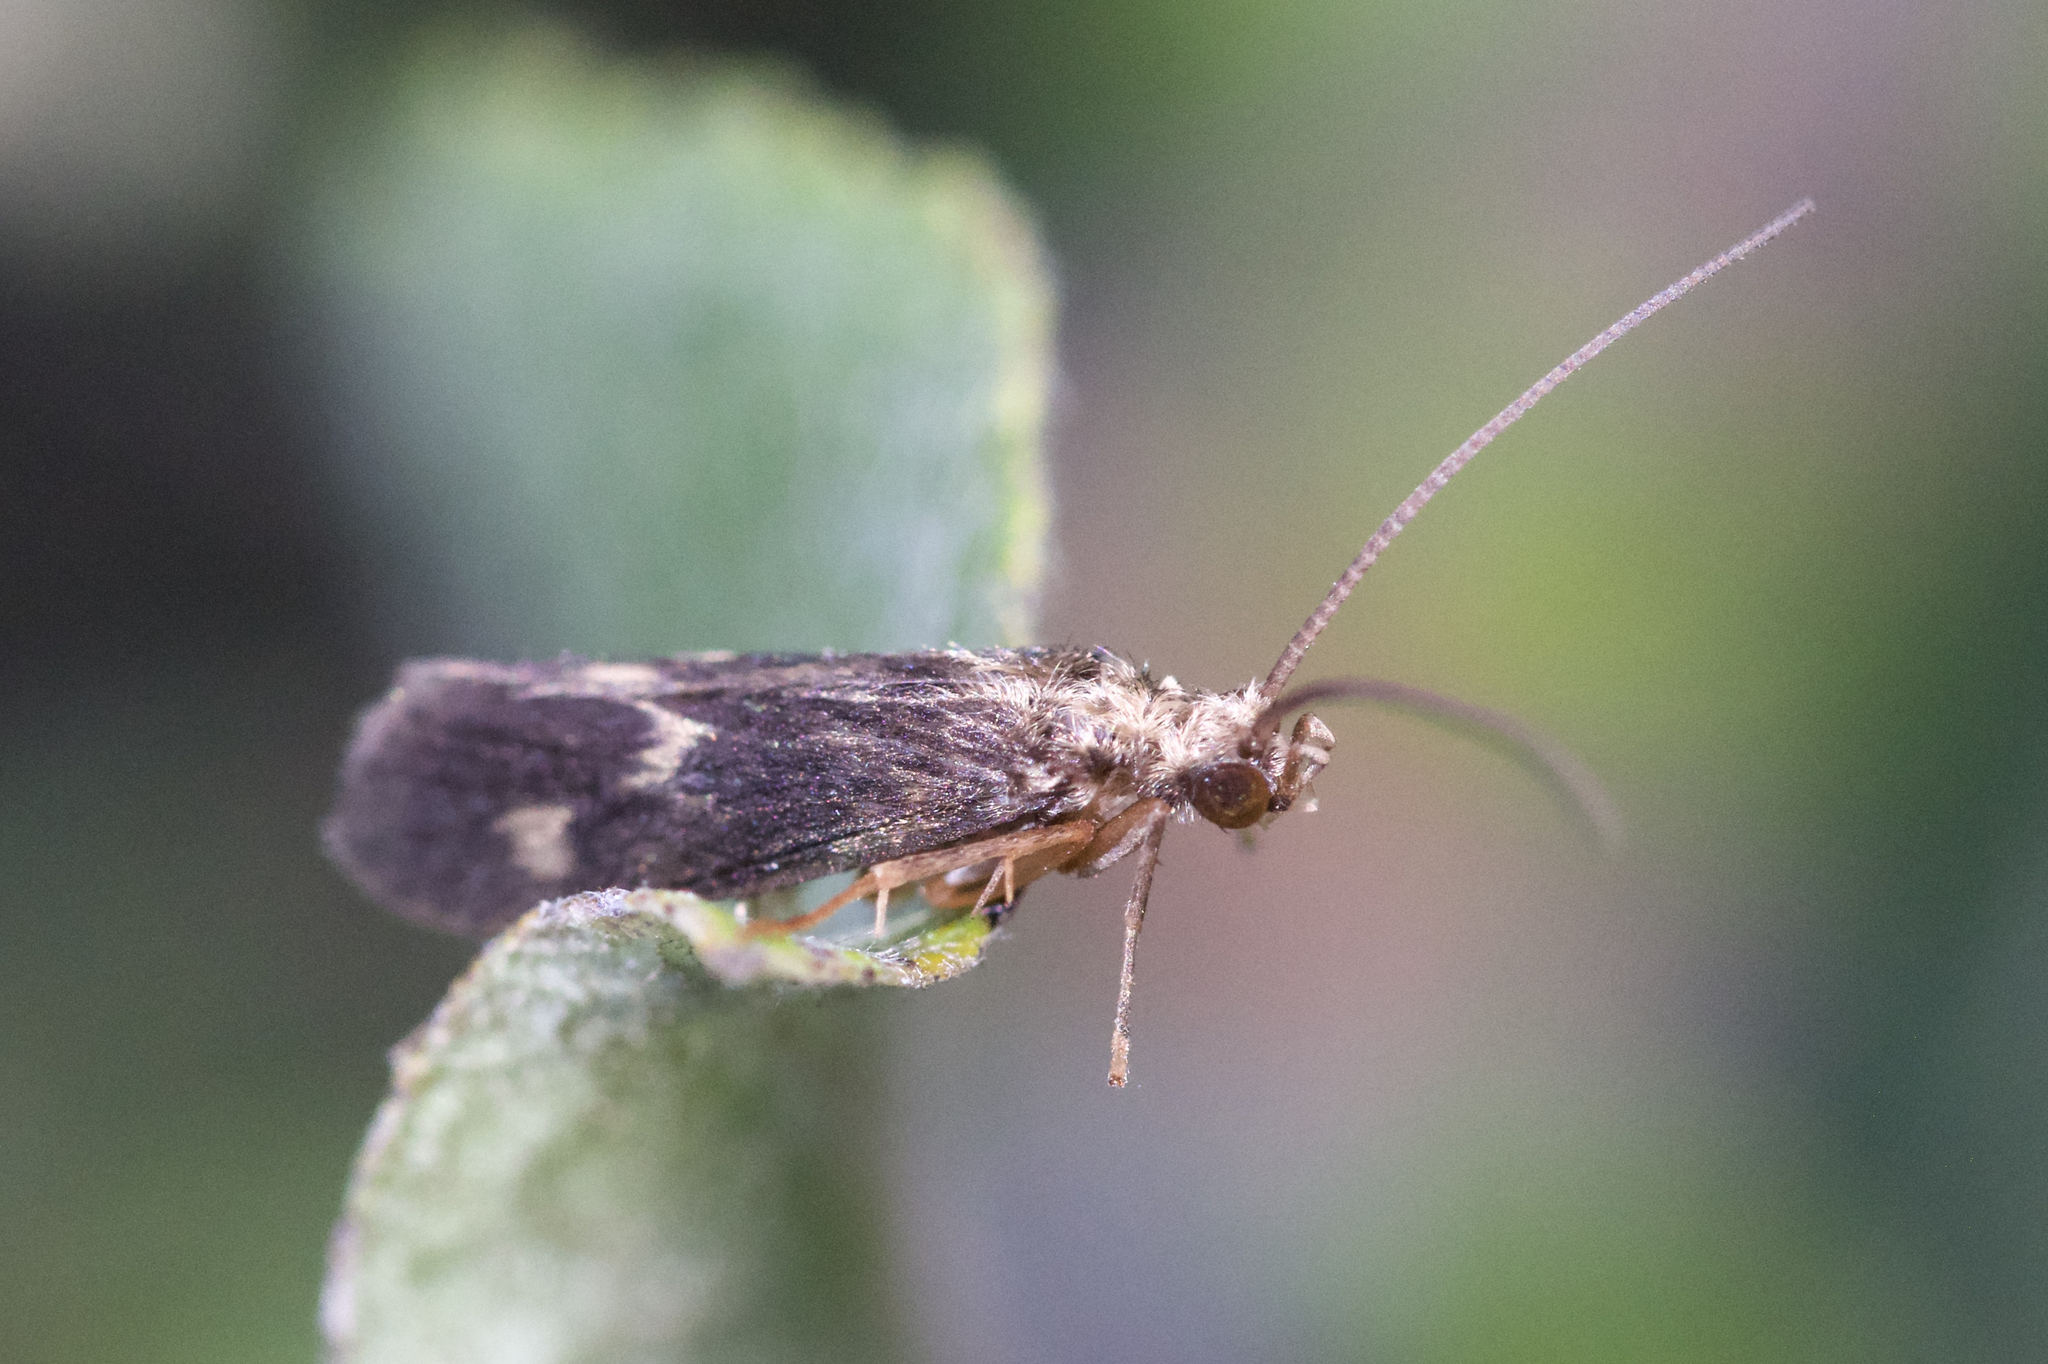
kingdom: Animalia
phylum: Arthropoda
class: Insecta
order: Trichoptera
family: Polycentropodidae
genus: Neureclipsis
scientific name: Neureclipsis bimaculata
